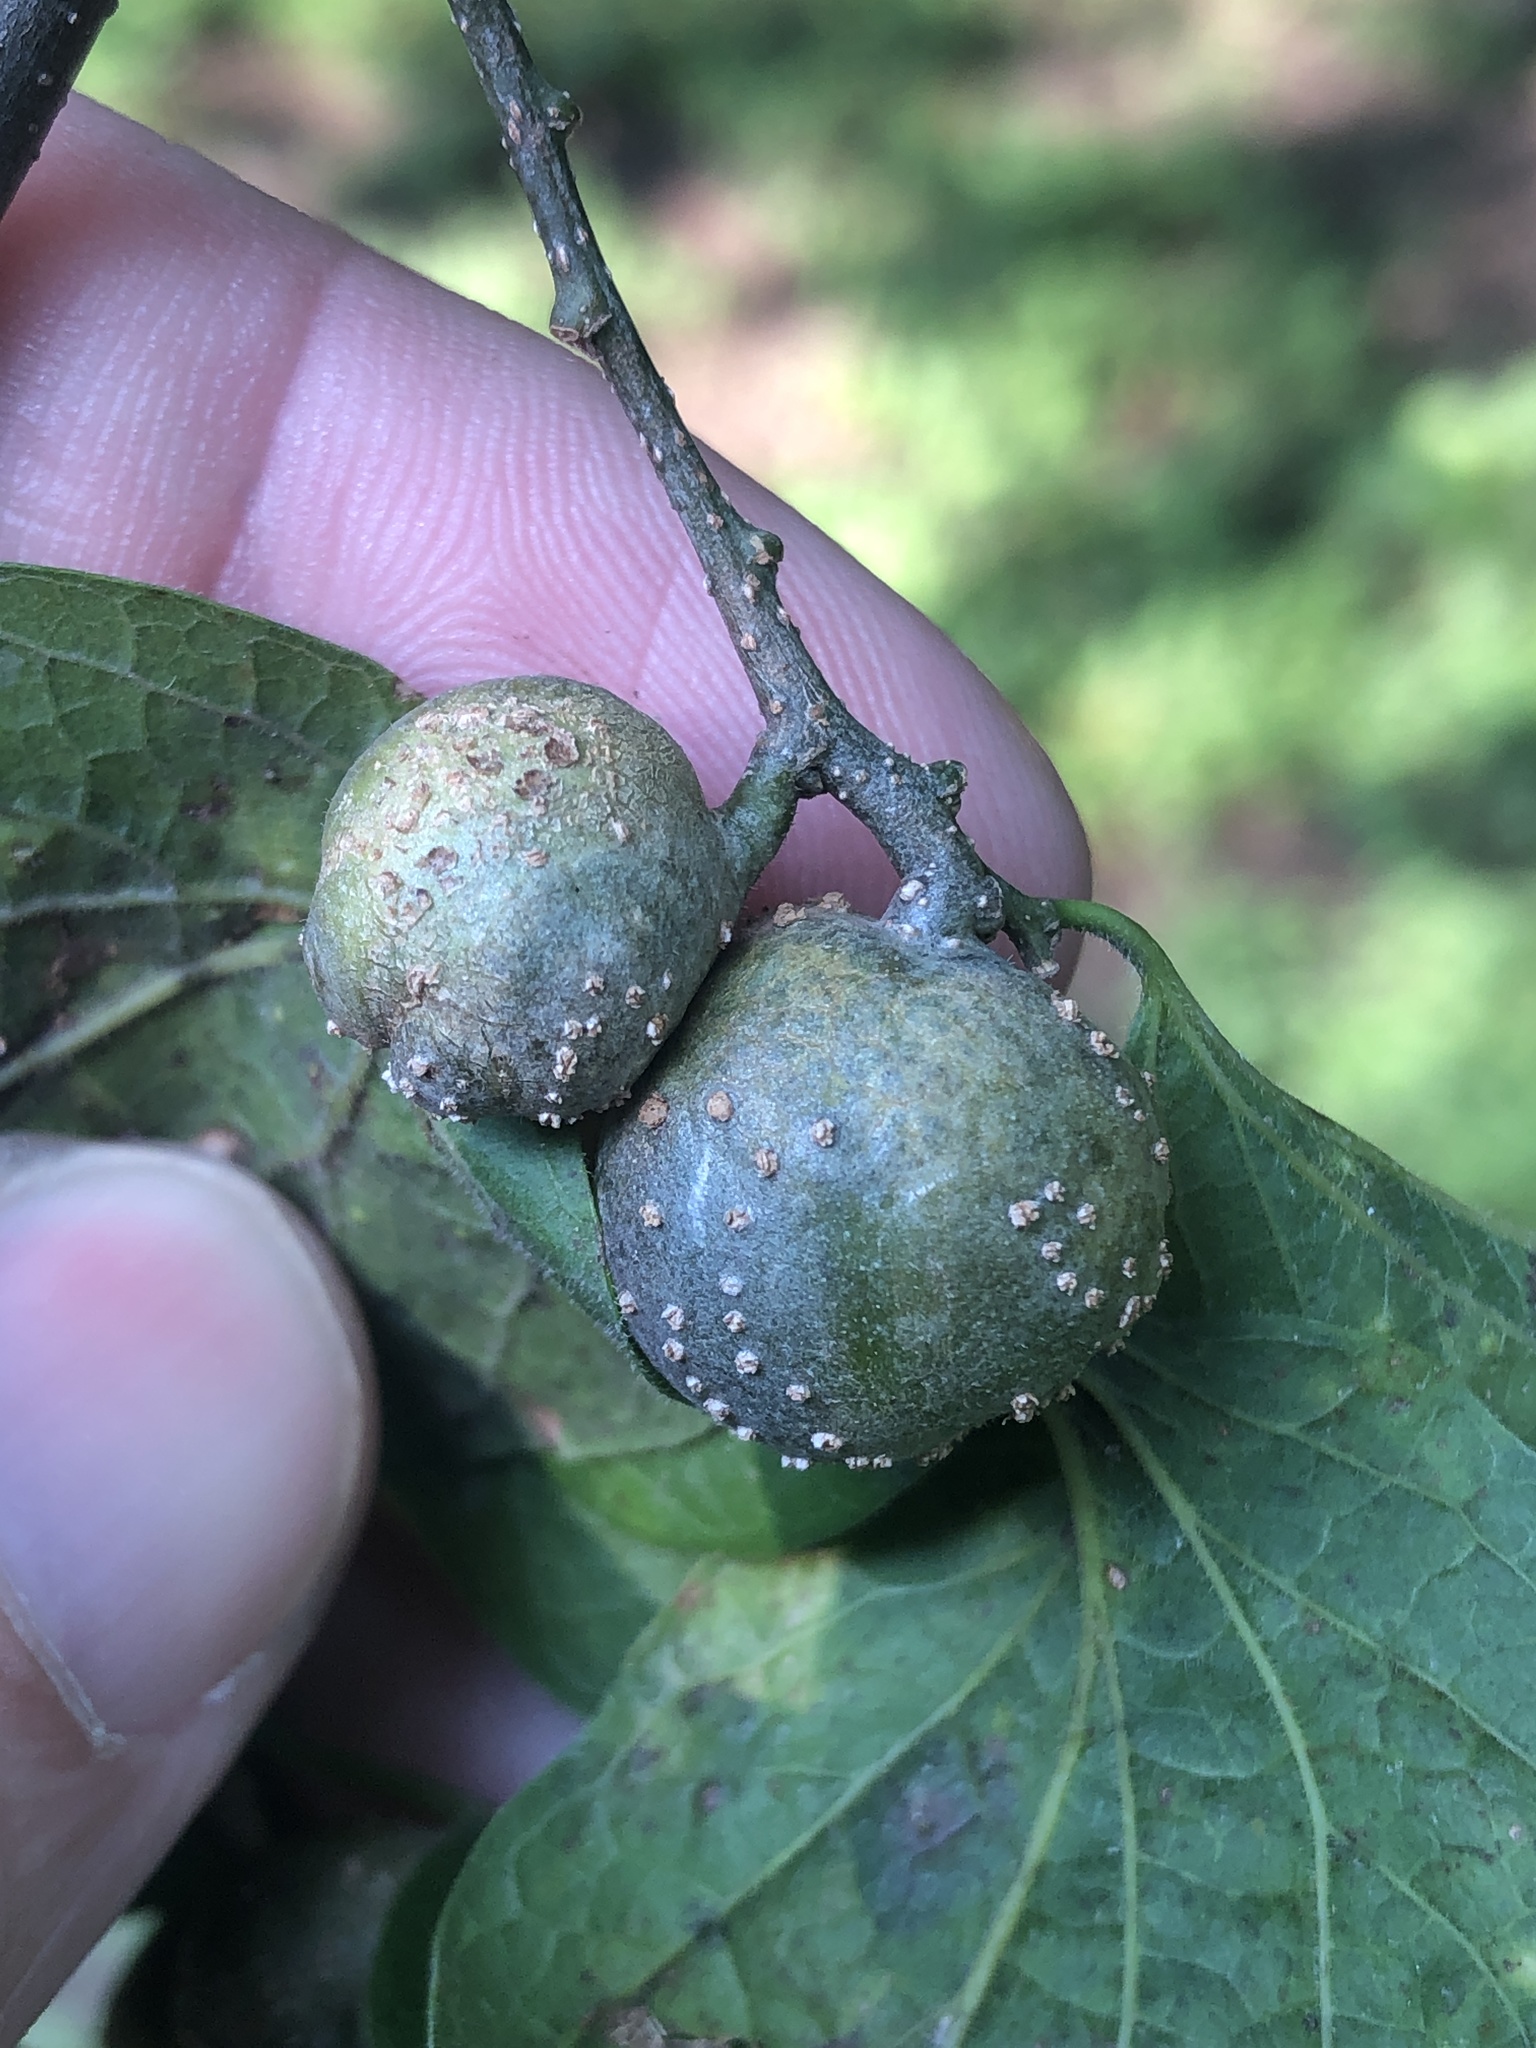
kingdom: Animalia
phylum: Arthropoda
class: Insecta
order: Hemiptera
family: Aphalaridae
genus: Pachypsylla
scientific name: Pachypsylla venusta
